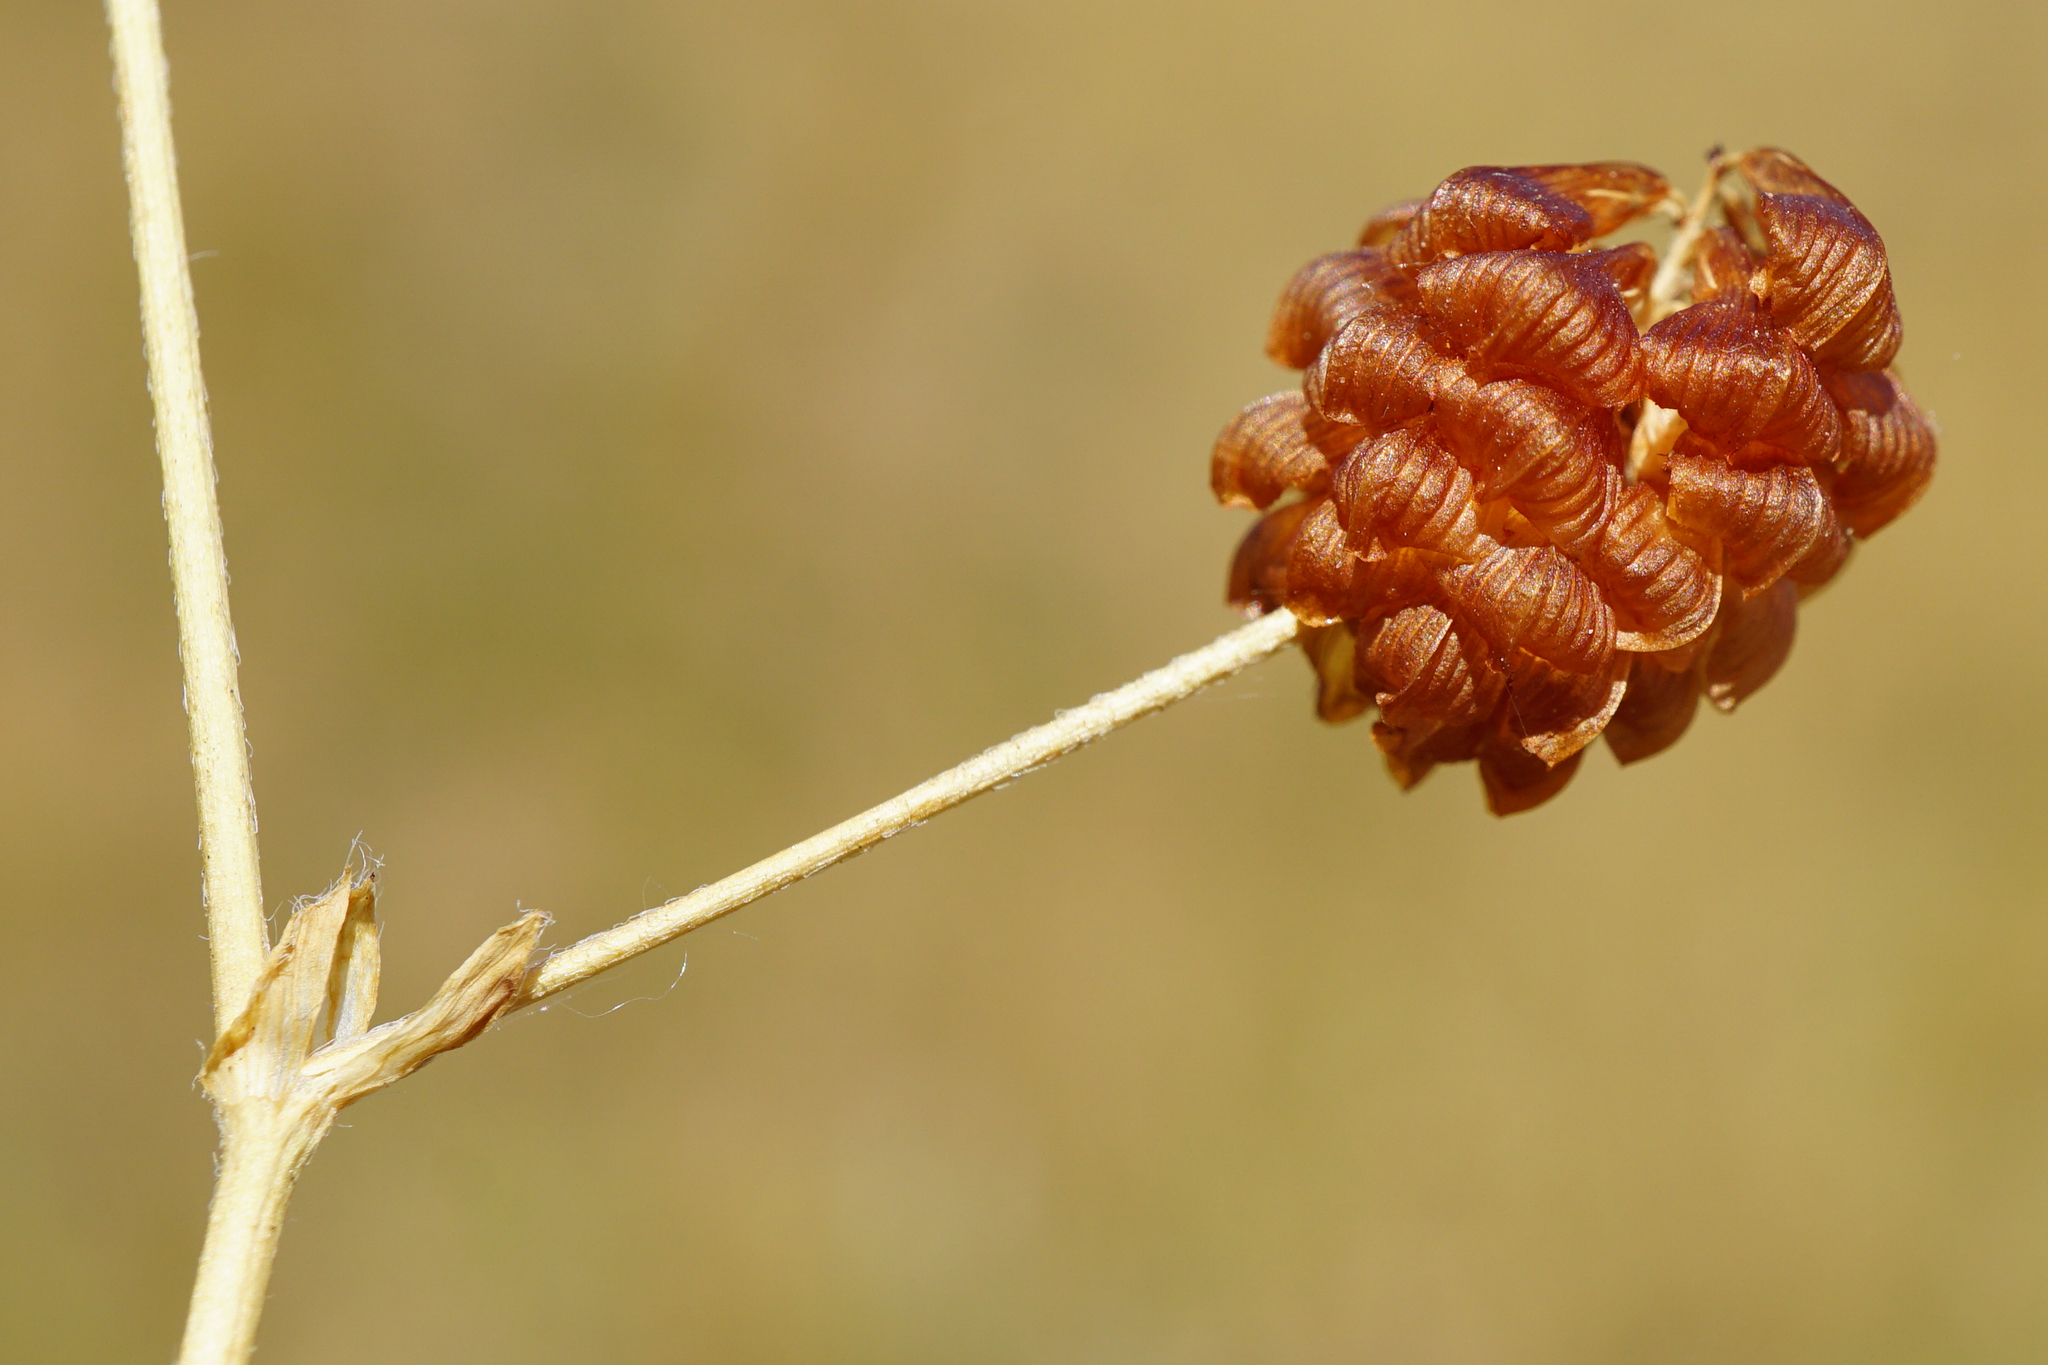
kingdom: Plantae
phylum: Tracheophyta
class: Magnoliopsida
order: Fabales
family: Fabaceae
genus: Trifolium
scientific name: Trifolium campestre
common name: Field clover
